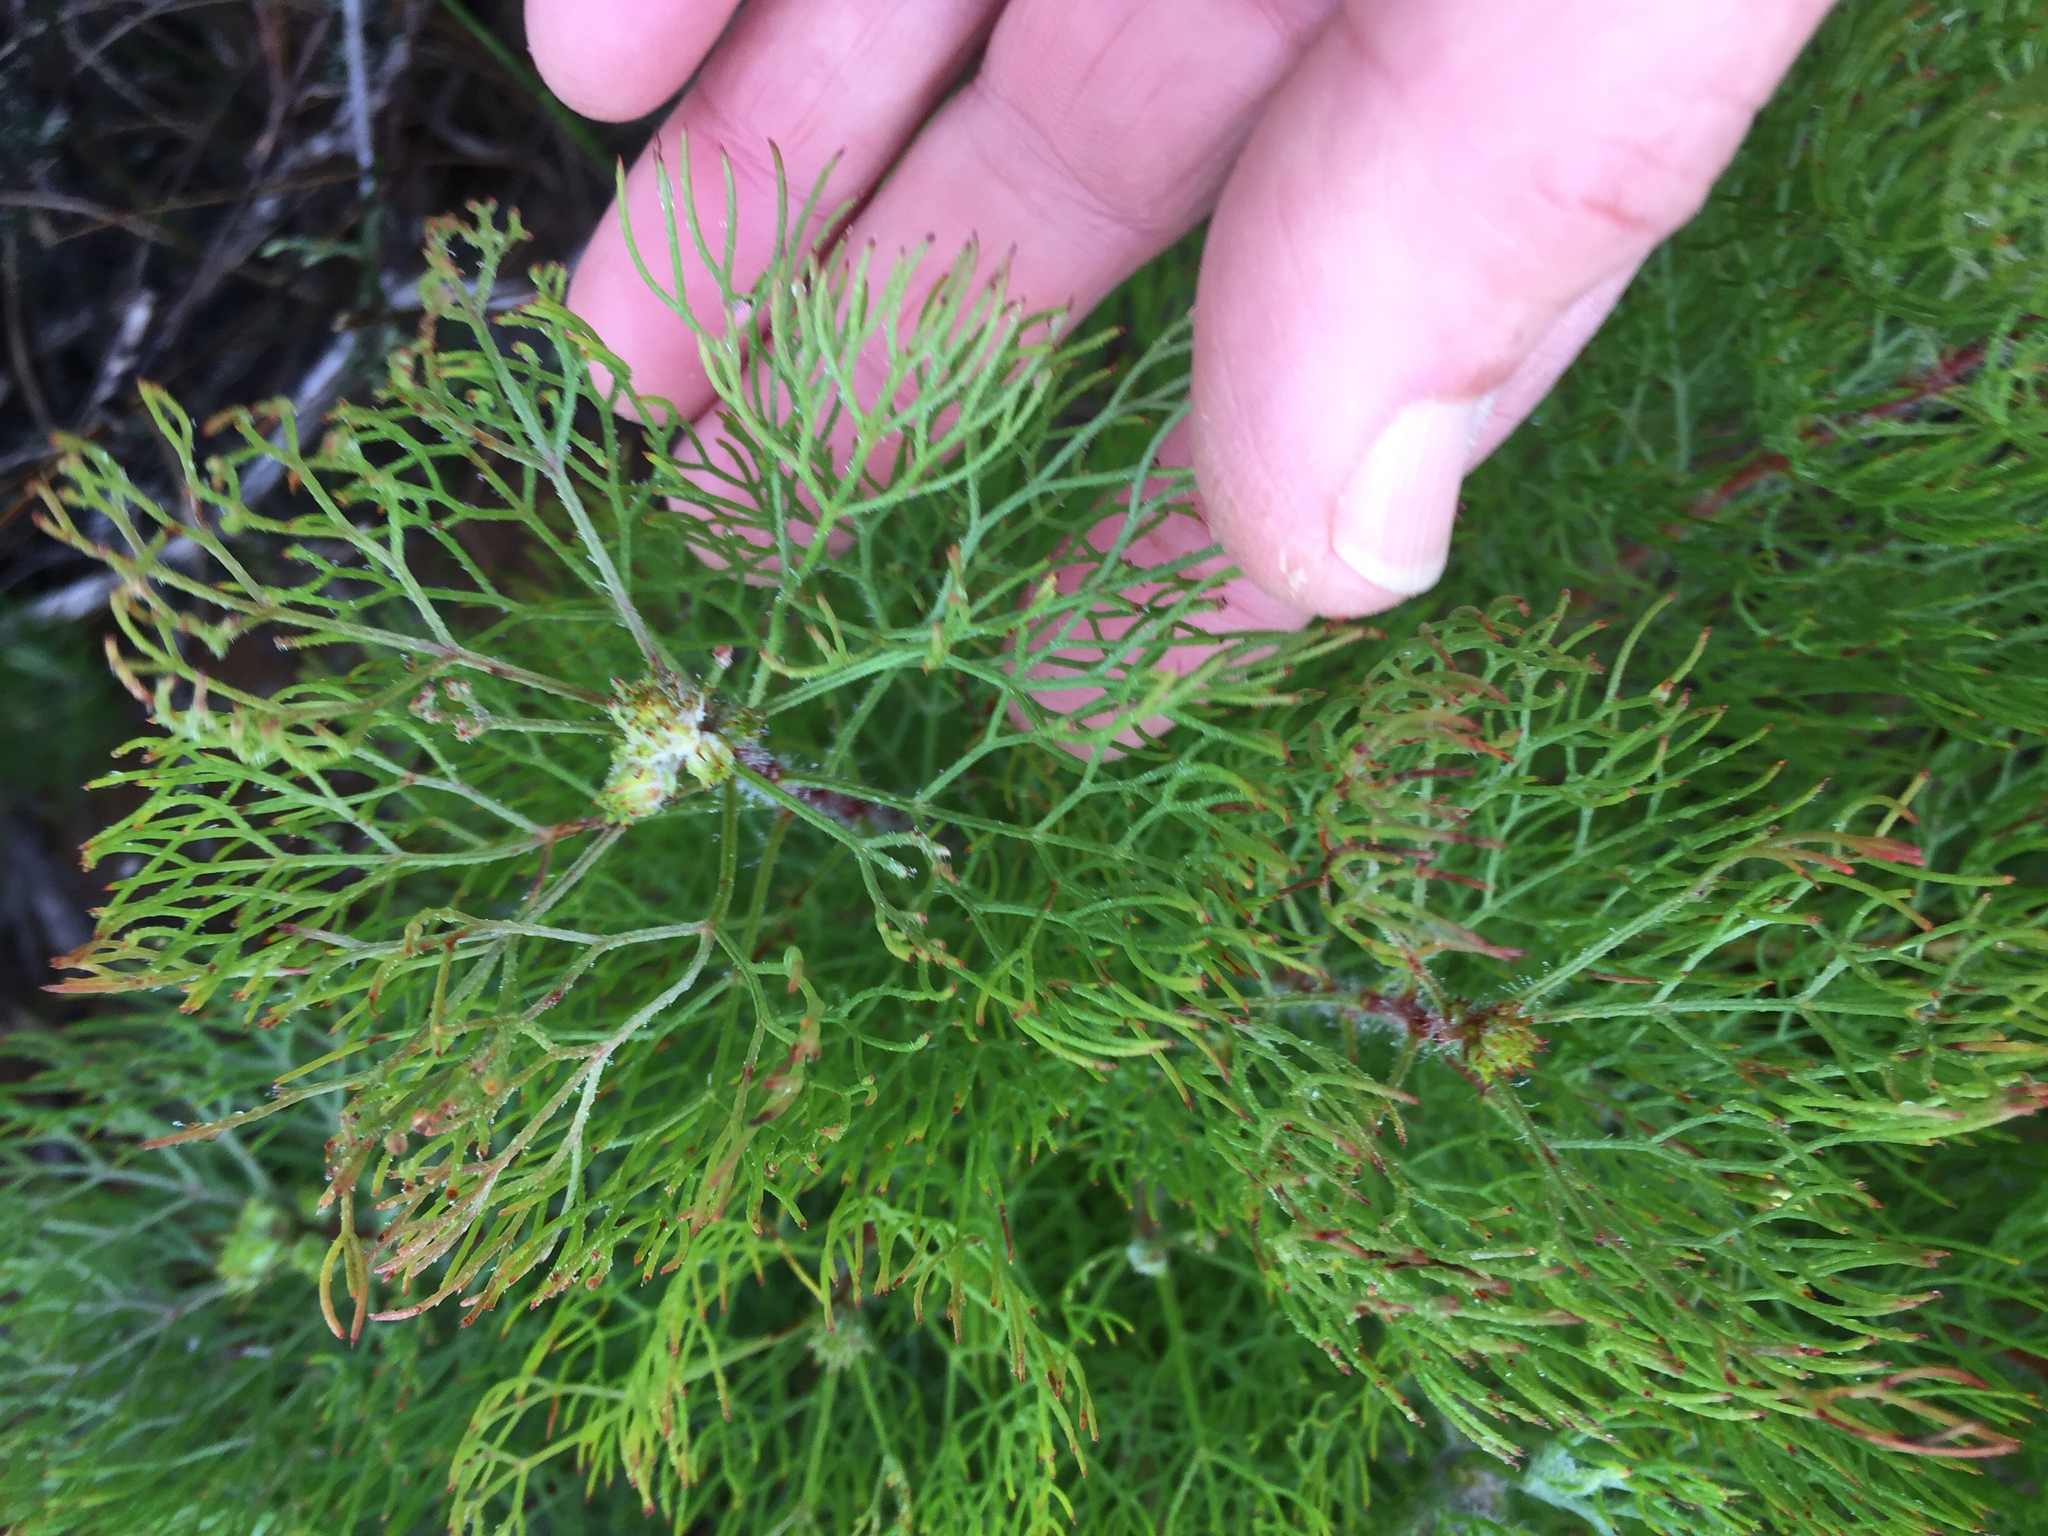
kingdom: Plantae
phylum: Tracheophyta
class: Magnoliopsida
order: Proteales
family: Proteaceae
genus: Serruria
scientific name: Serruria fasciflora
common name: Common pin spiderhead
